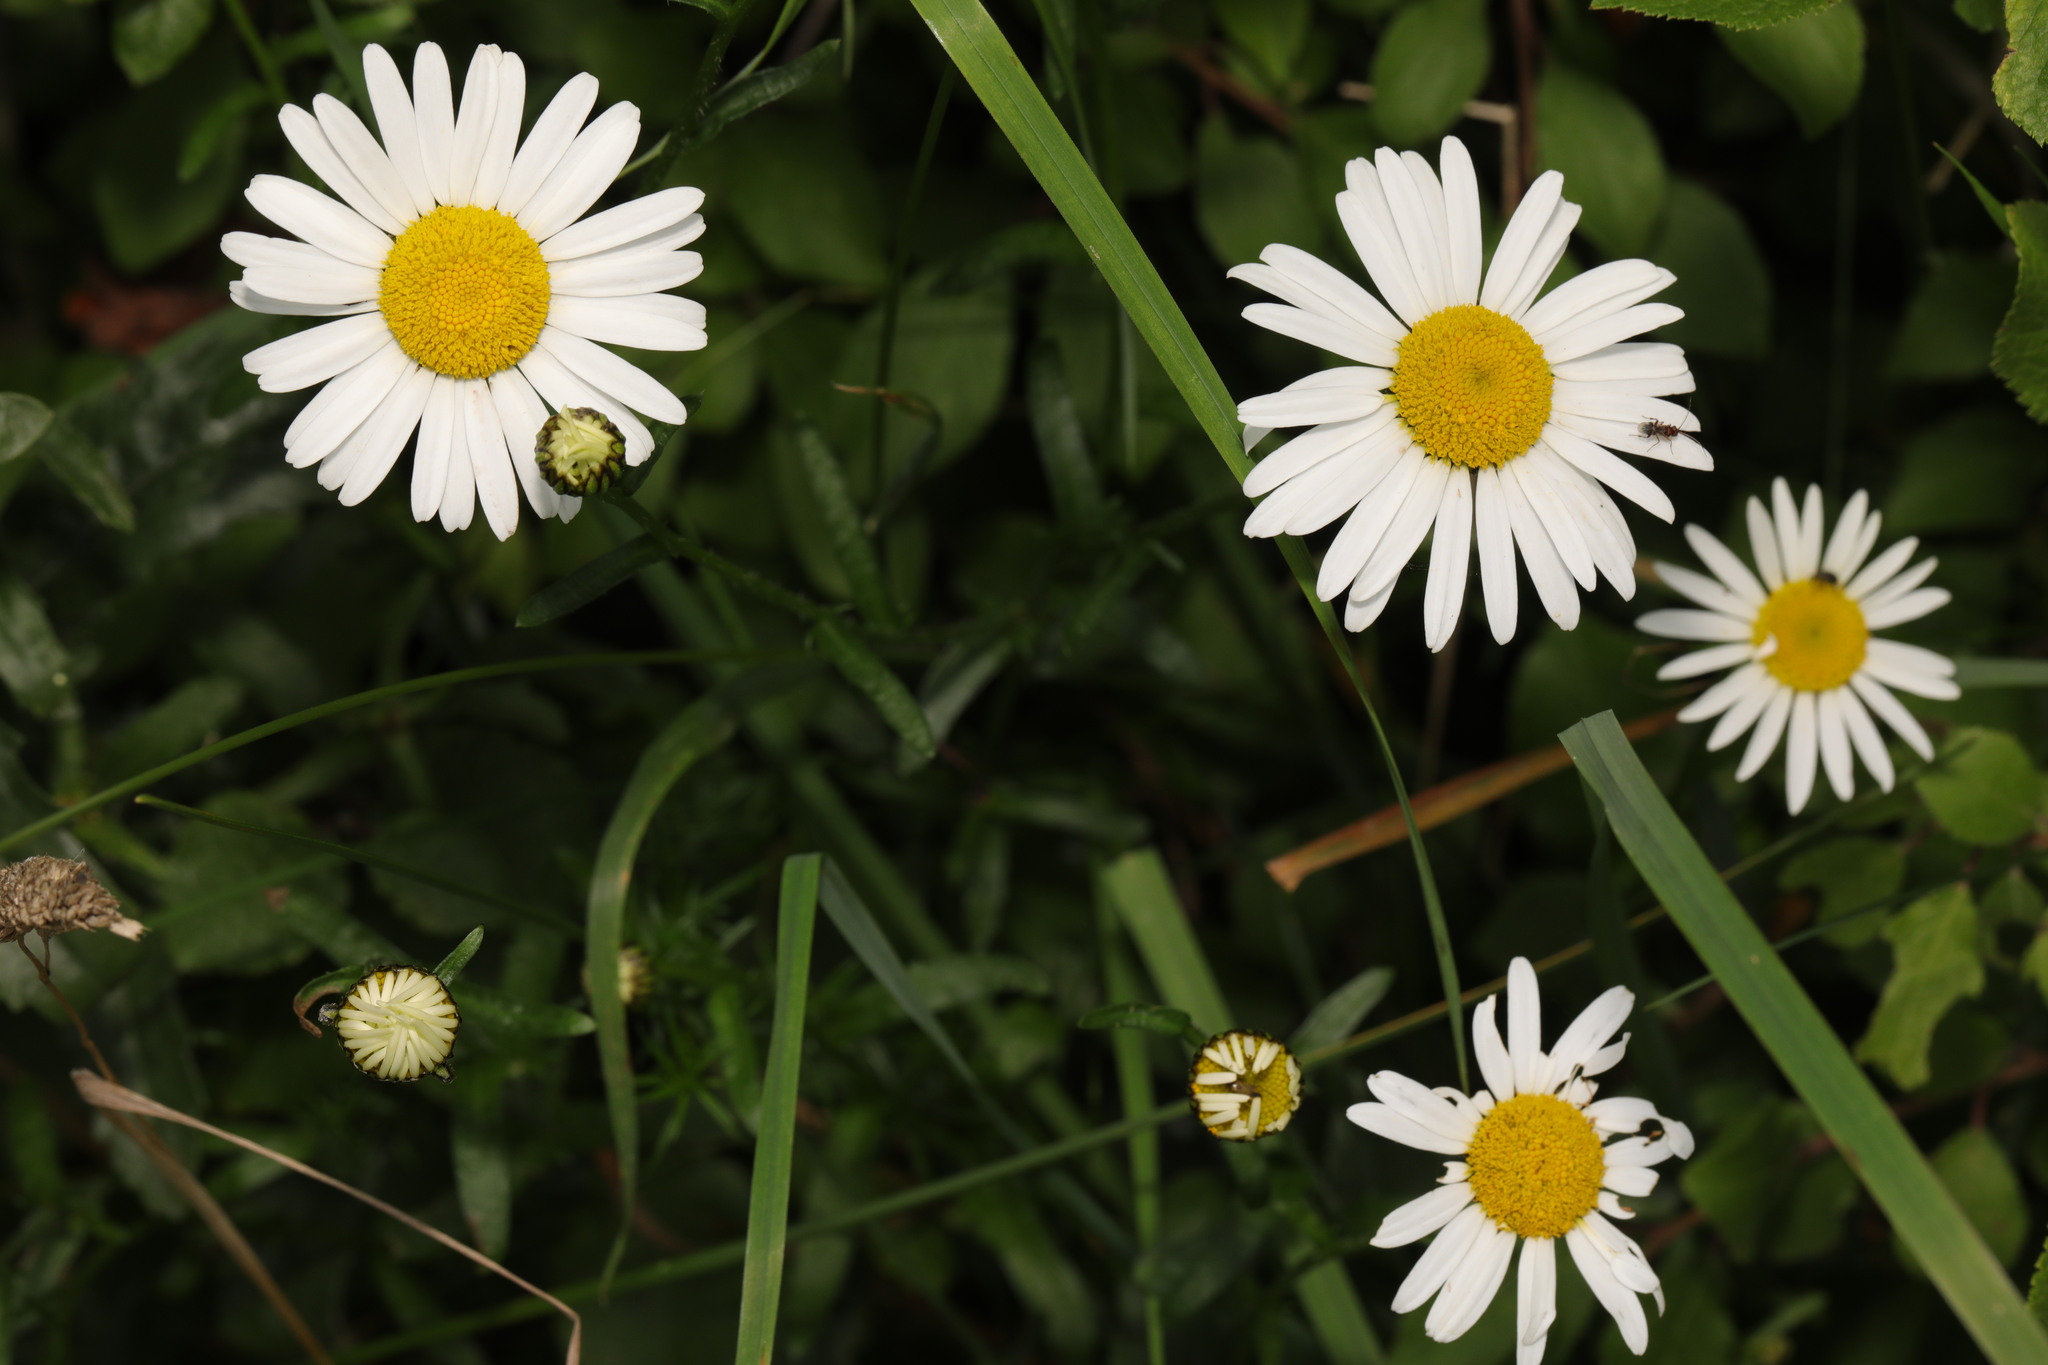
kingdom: Plantae
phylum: Tracheophyta
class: Magnoliopsida
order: Asterales
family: Asteraceae
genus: Leucanthemum
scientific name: Leucanthemum vulgare
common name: Oxeye daisy
